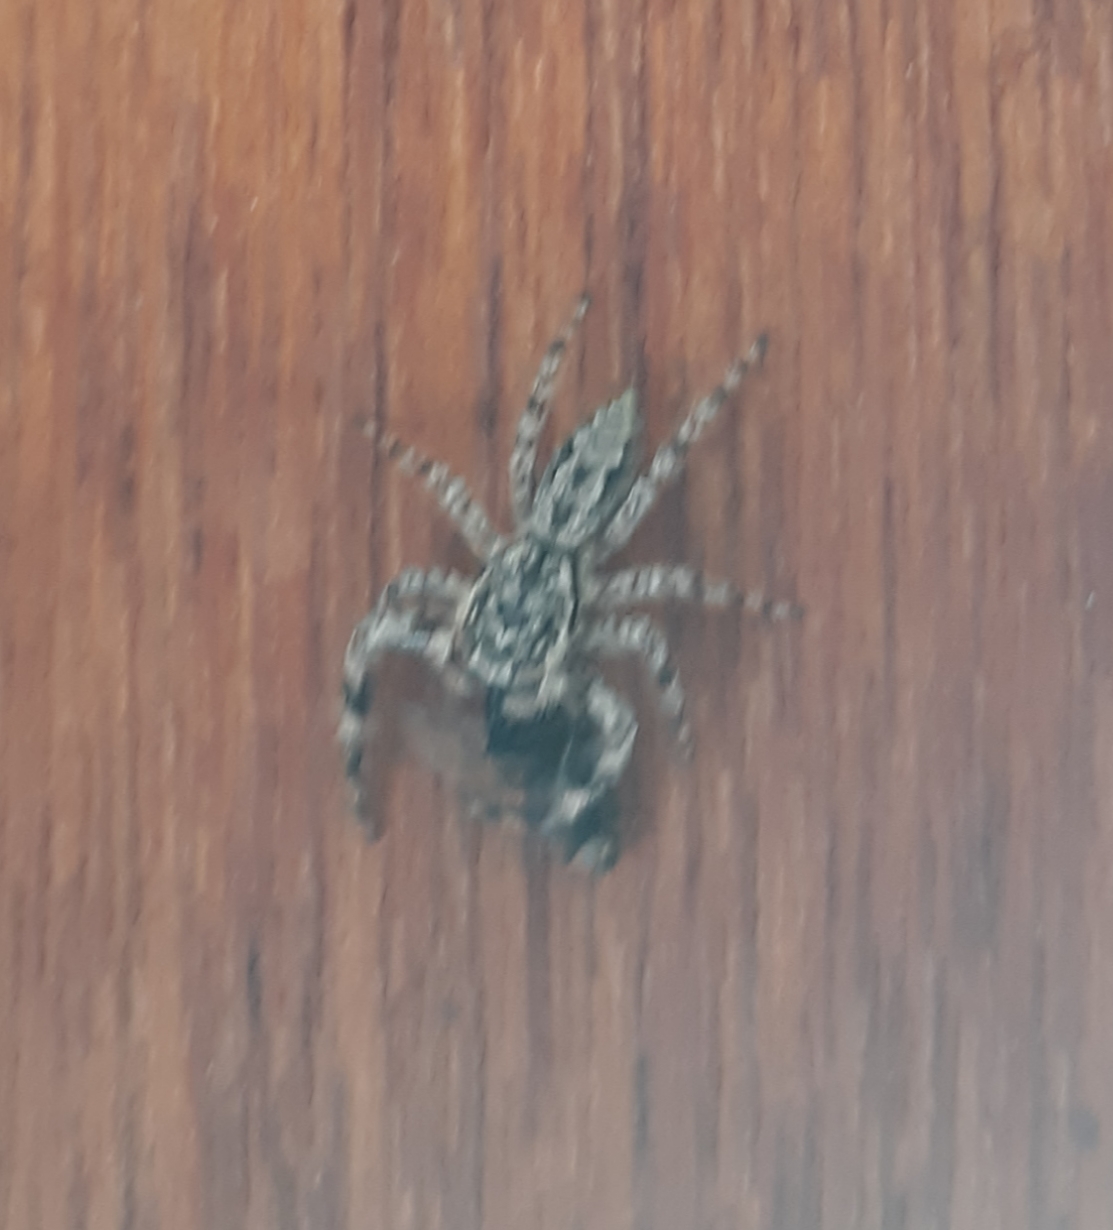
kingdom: Animalia
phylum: Arthropoda
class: Arachnida
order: Araneae
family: Salticidae
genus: Platycryptus
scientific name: Platycryptus undatus
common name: Tan jumping spider
